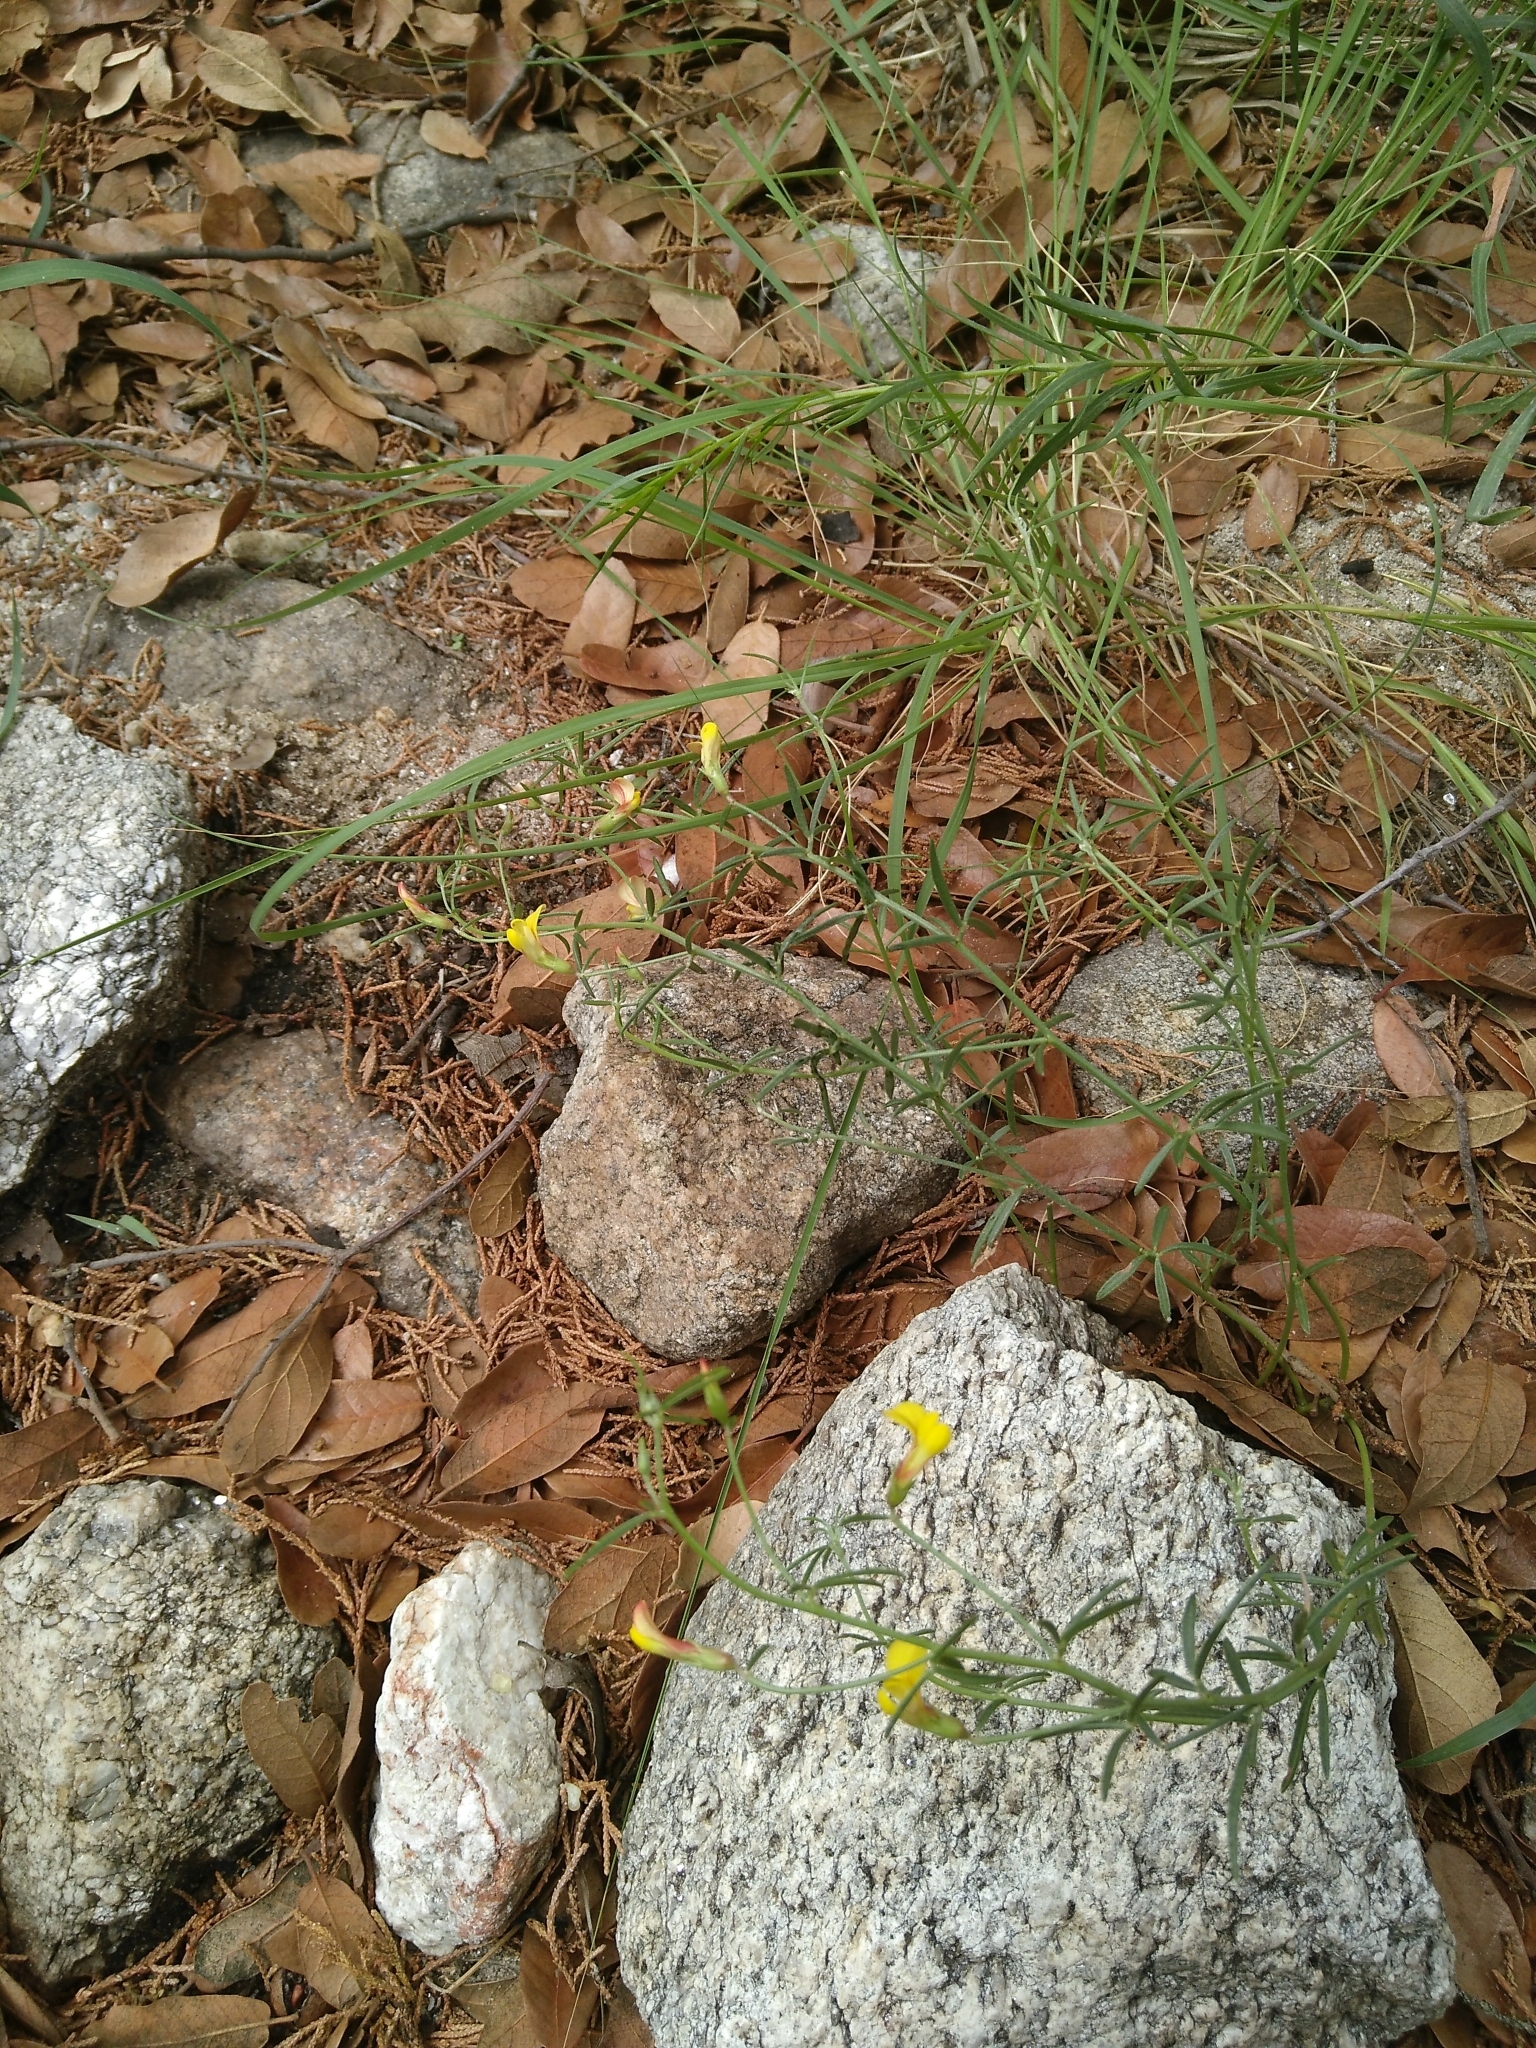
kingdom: Plantae
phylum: Tracheophyta
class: Magnoliopsida
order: Fabales
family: Fabaceae
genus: Acmispon
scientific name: Acmispon oroboides
